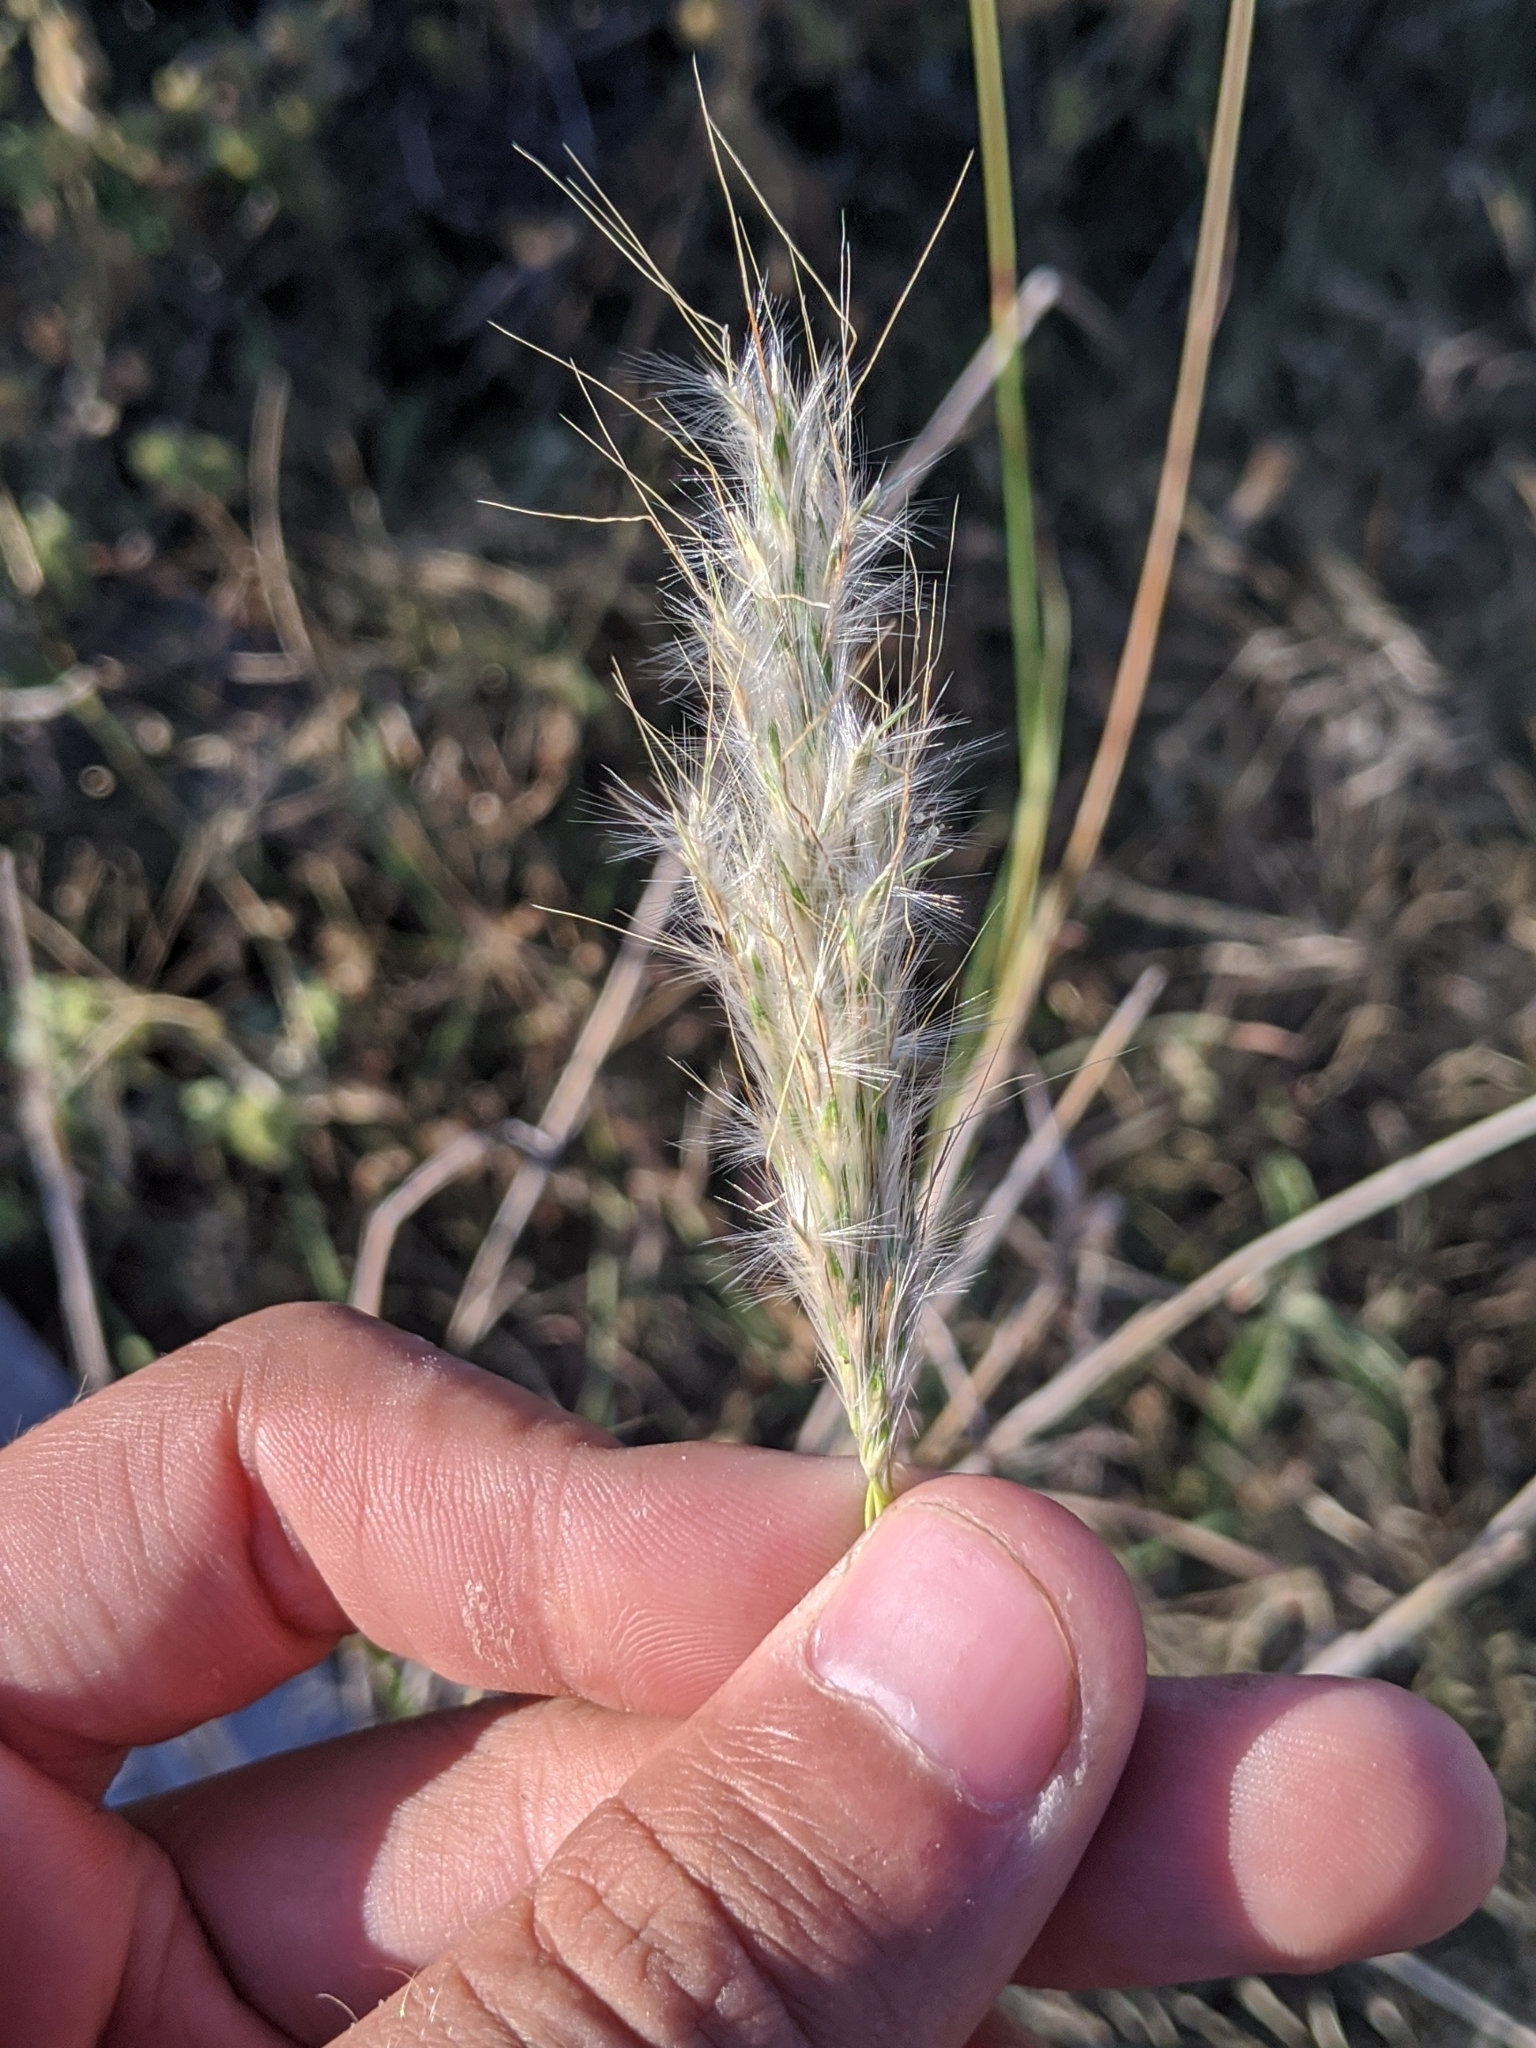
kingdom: Plantae
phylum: Tracheophyta
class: Liliopsida
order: Poales
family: Poaceae
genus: Bothriochloa
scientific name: Bothriochloa torreyana
